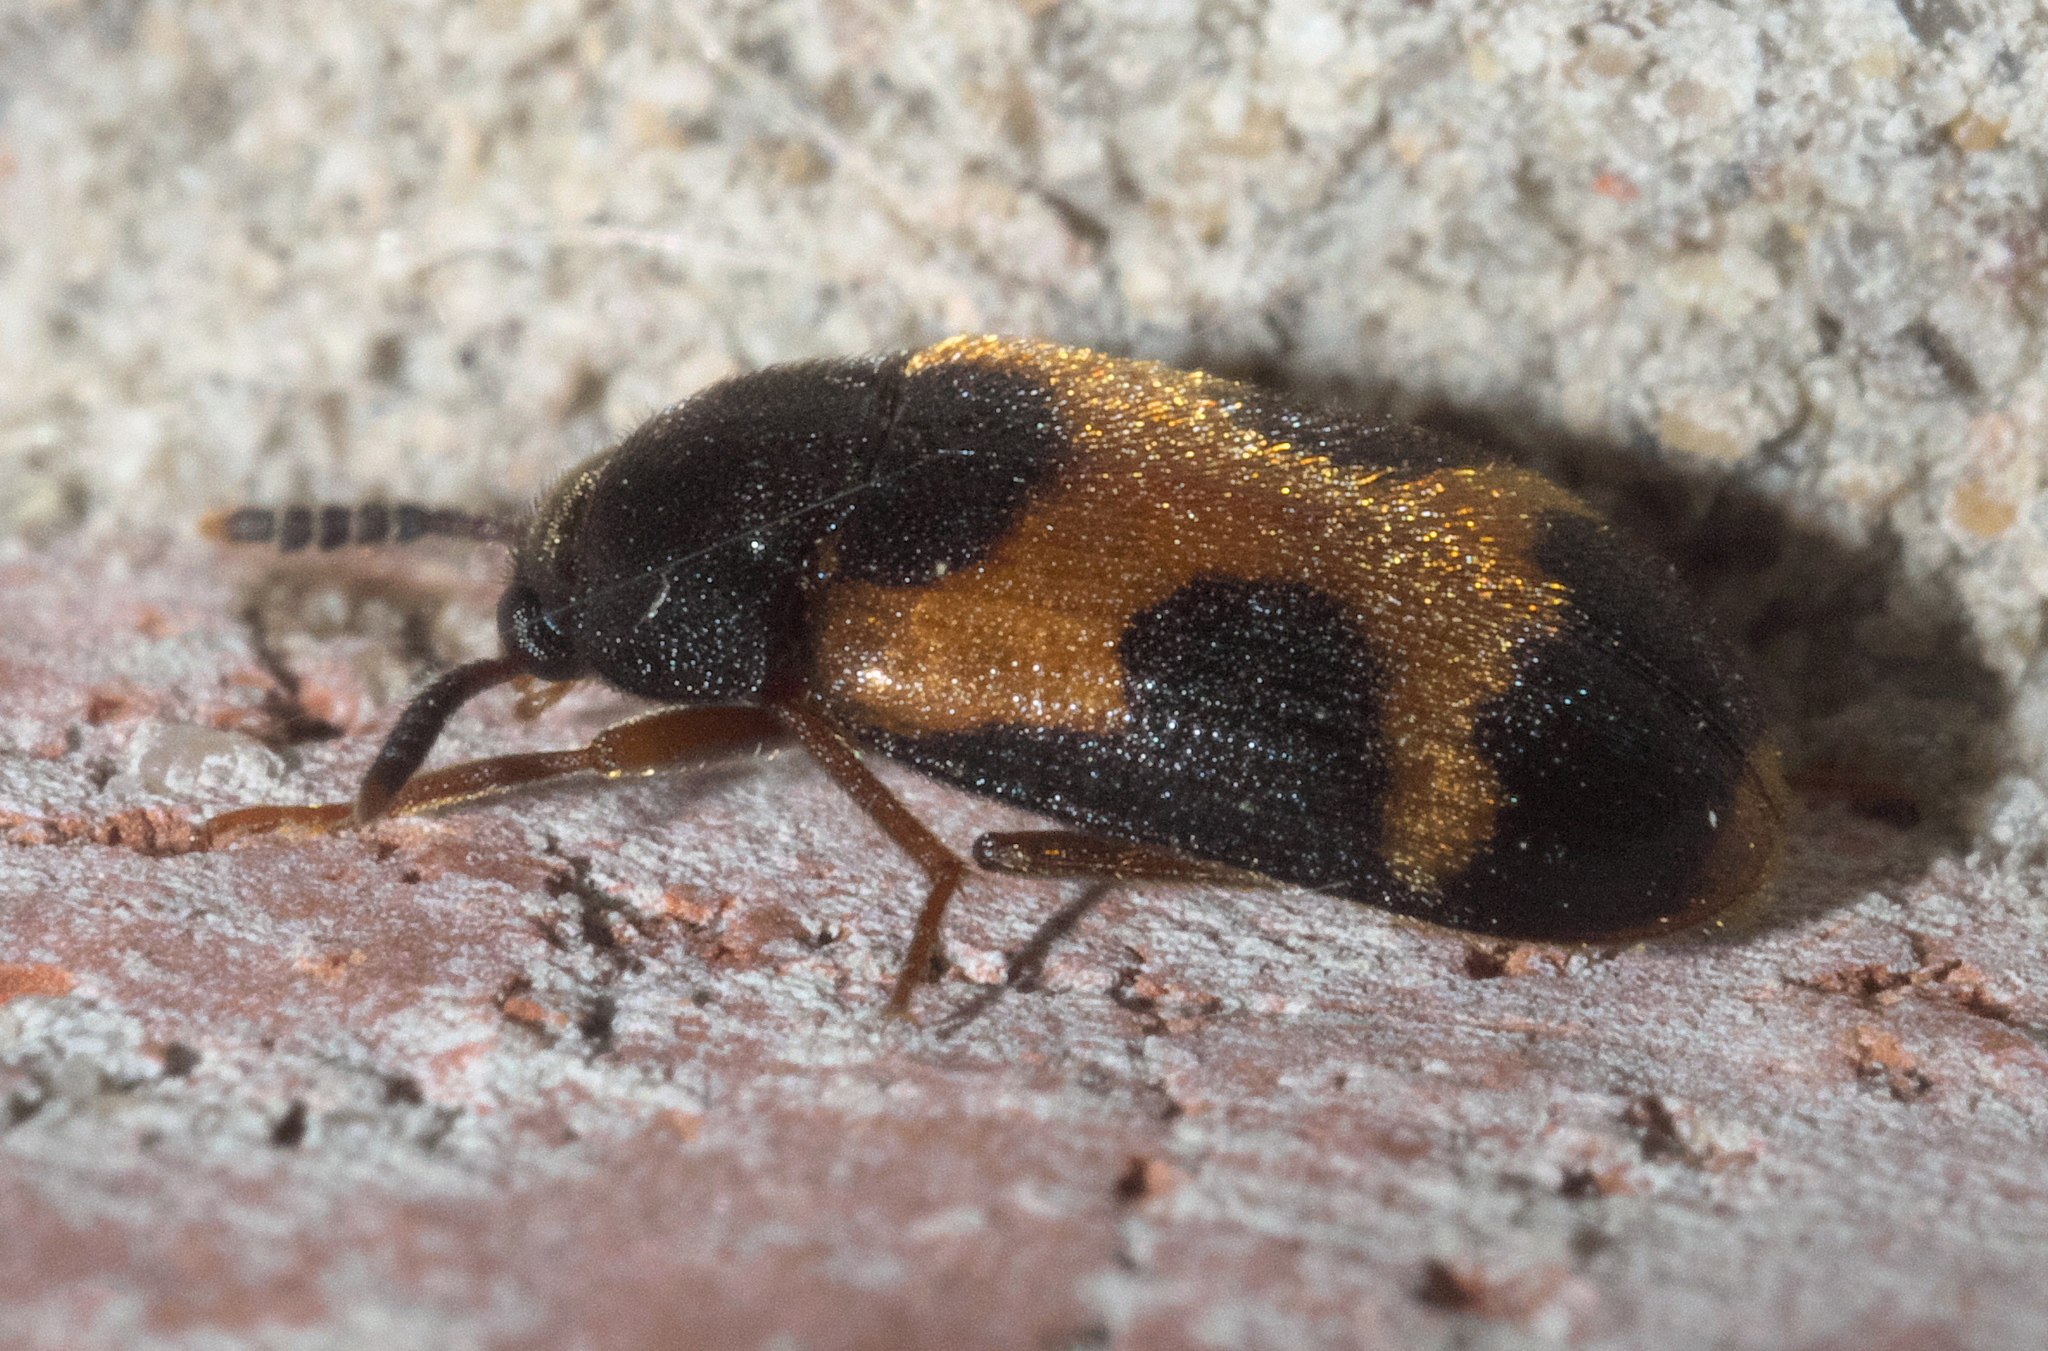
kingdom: Animalia
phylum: Arthropoda
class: Insecta
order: Coleoptera
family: Mycetophagidae
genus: Mycetophagus
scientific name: Mycetophagus punctatus
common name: Hairy fungus beetle
